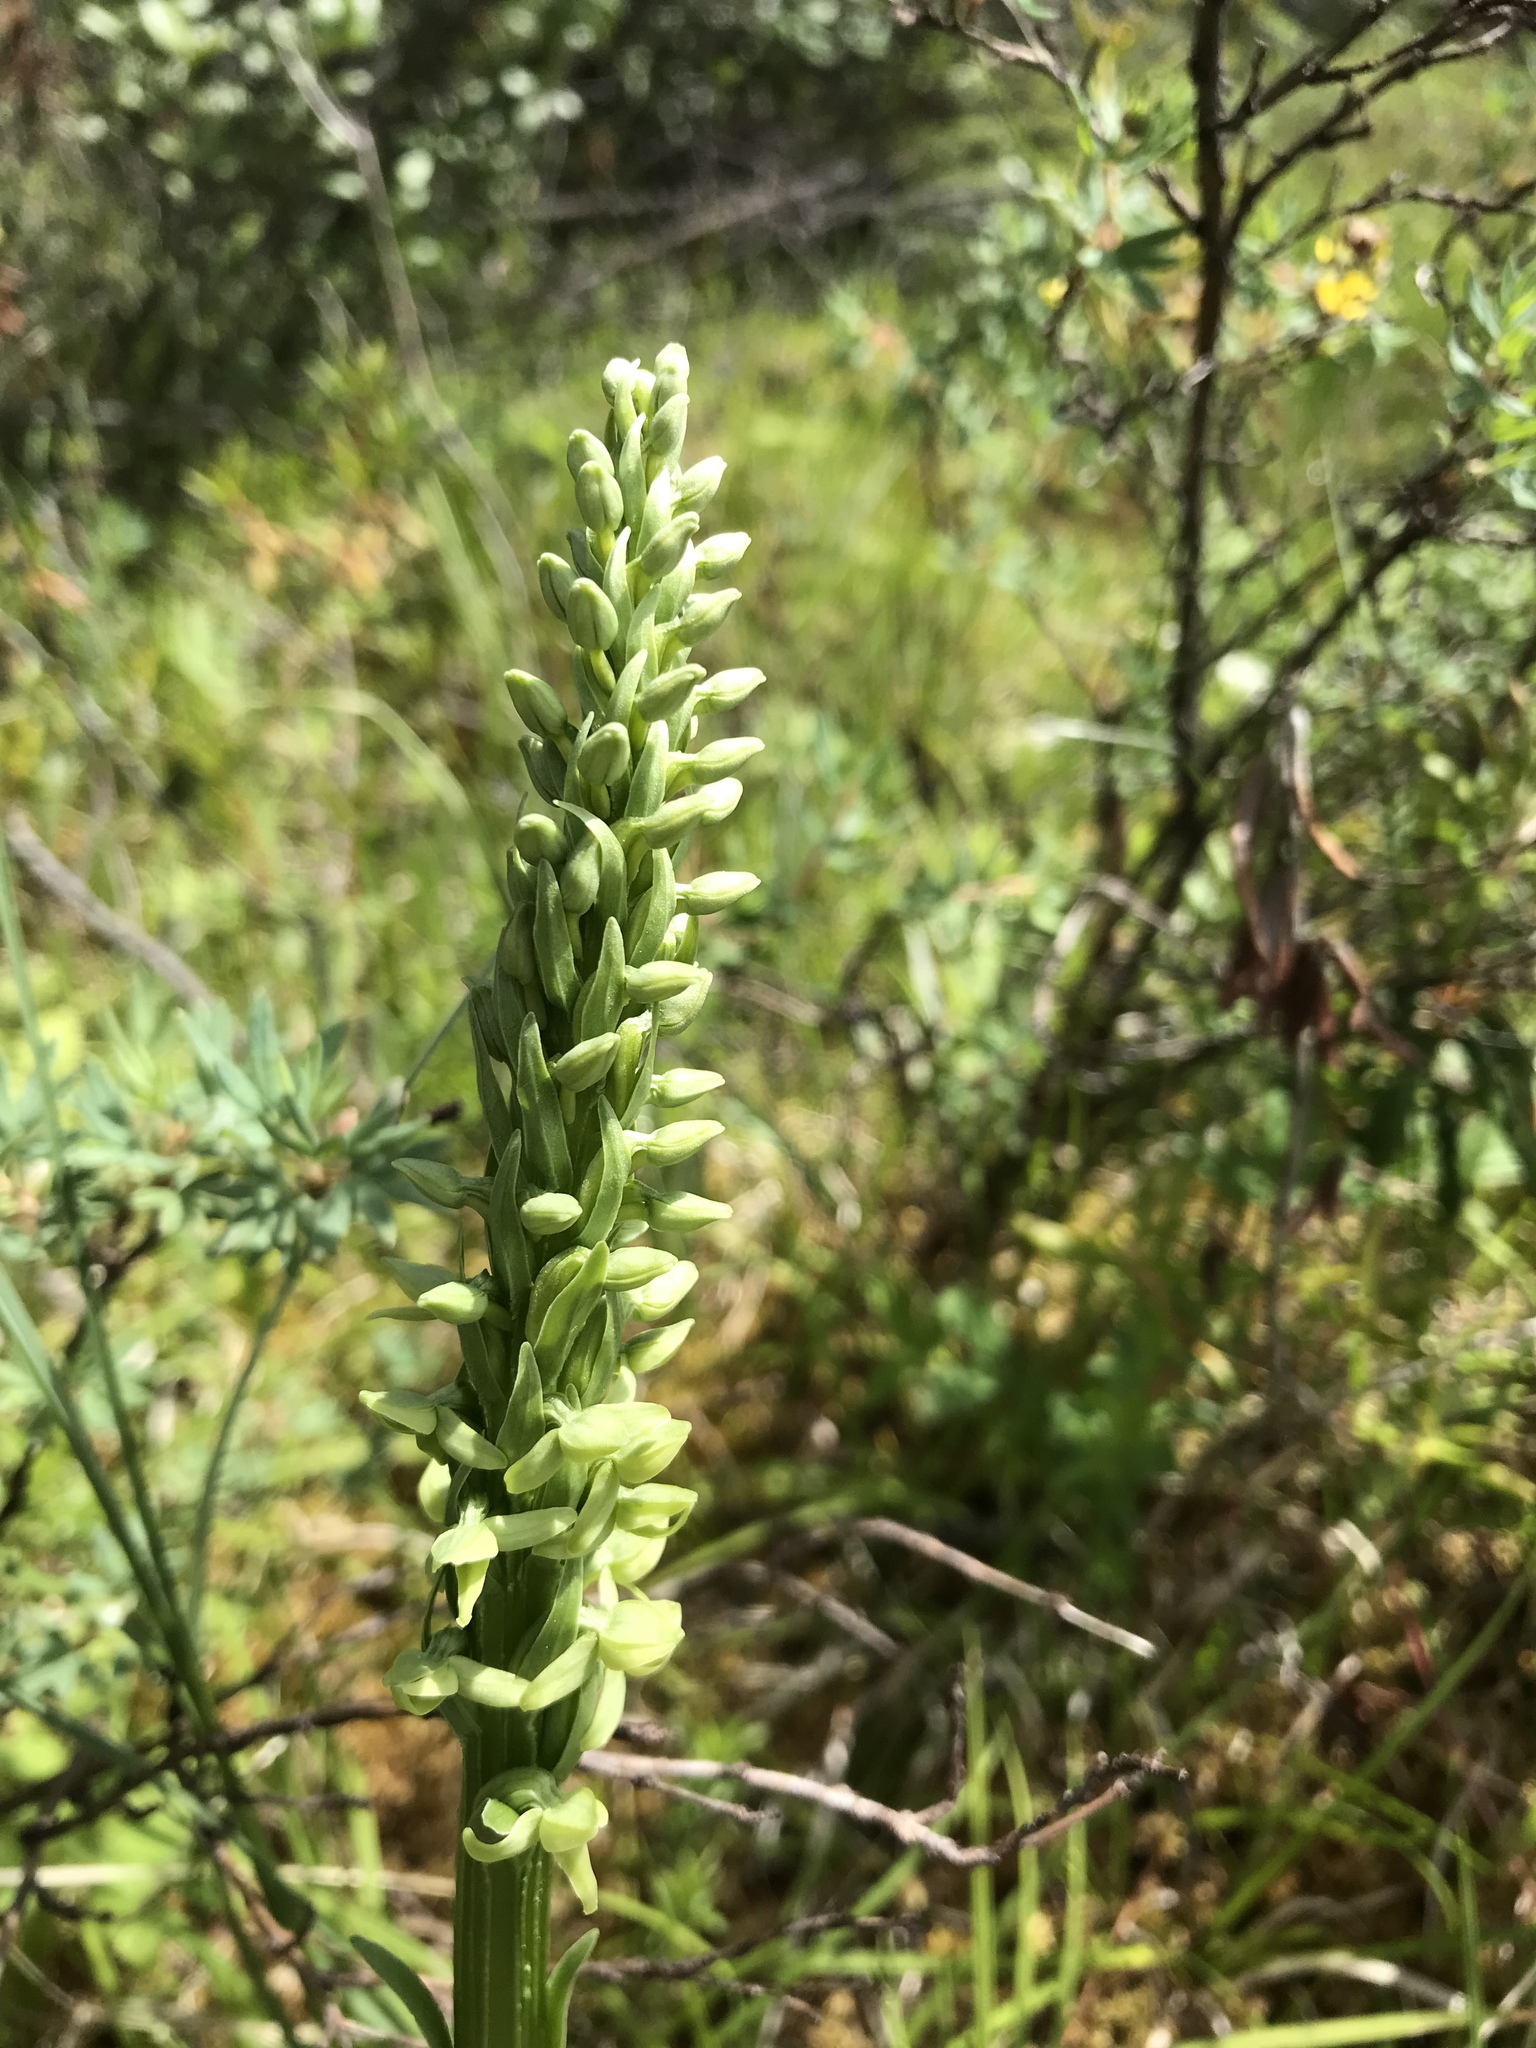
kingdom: Plantae
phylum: Tracheophyta
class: Liliopsida
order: Asparagales
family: Orchidaceae
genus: Platanthera
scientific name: Platanthera huronensis
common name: Fragrant green orchid
